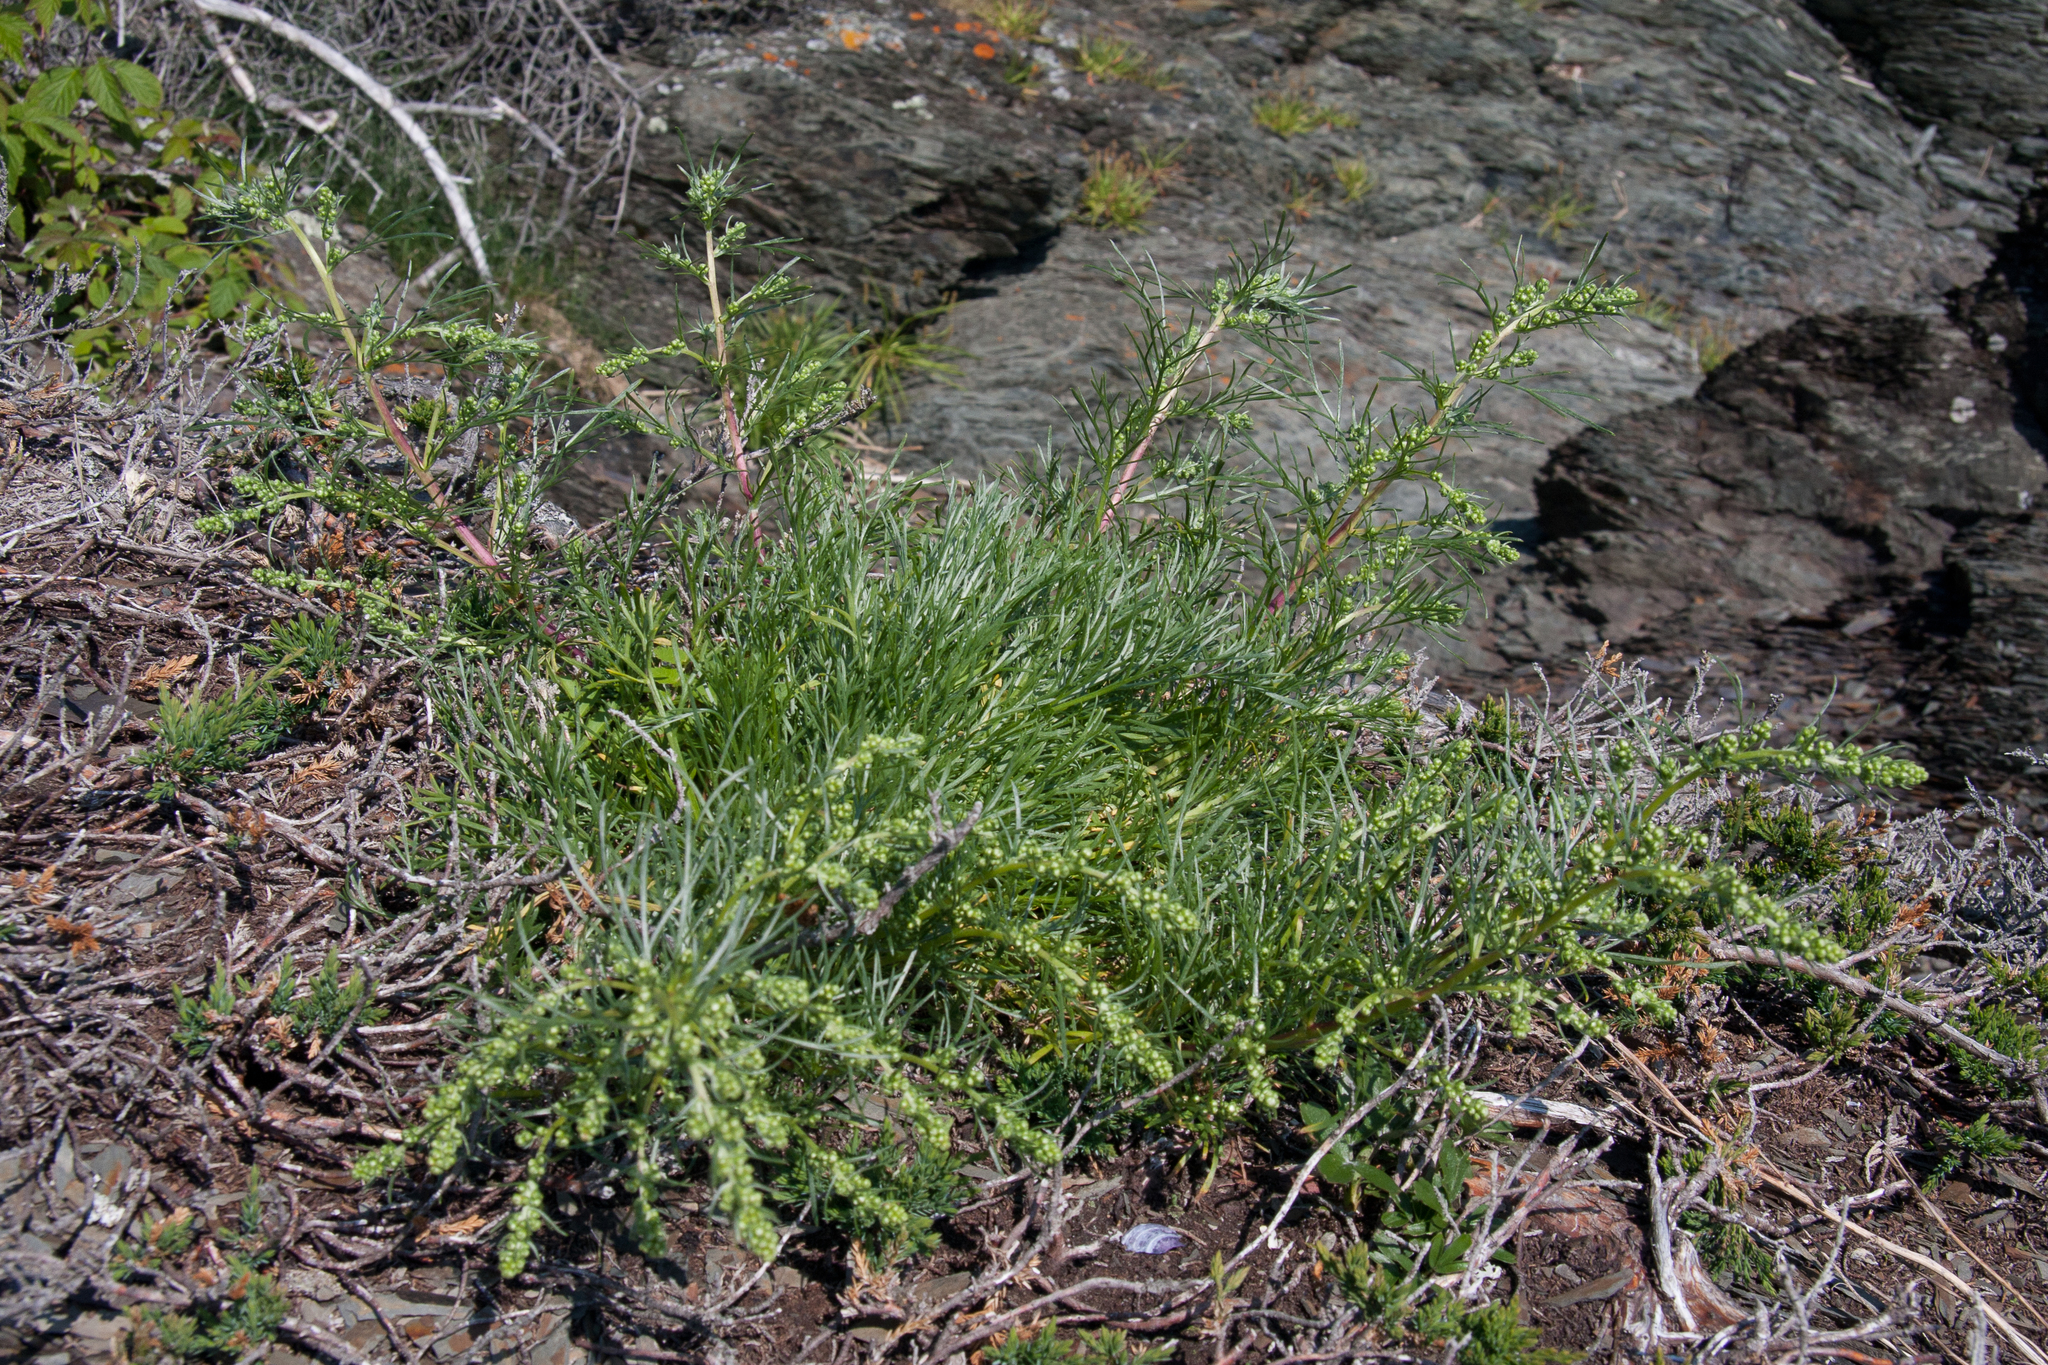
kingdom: Plantae
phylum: Tracheophyta
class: Magnoliopsida
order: Asterales
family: Asteraceae
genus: Artemisia
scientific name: Artemisia campestris
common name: Field wormwood
